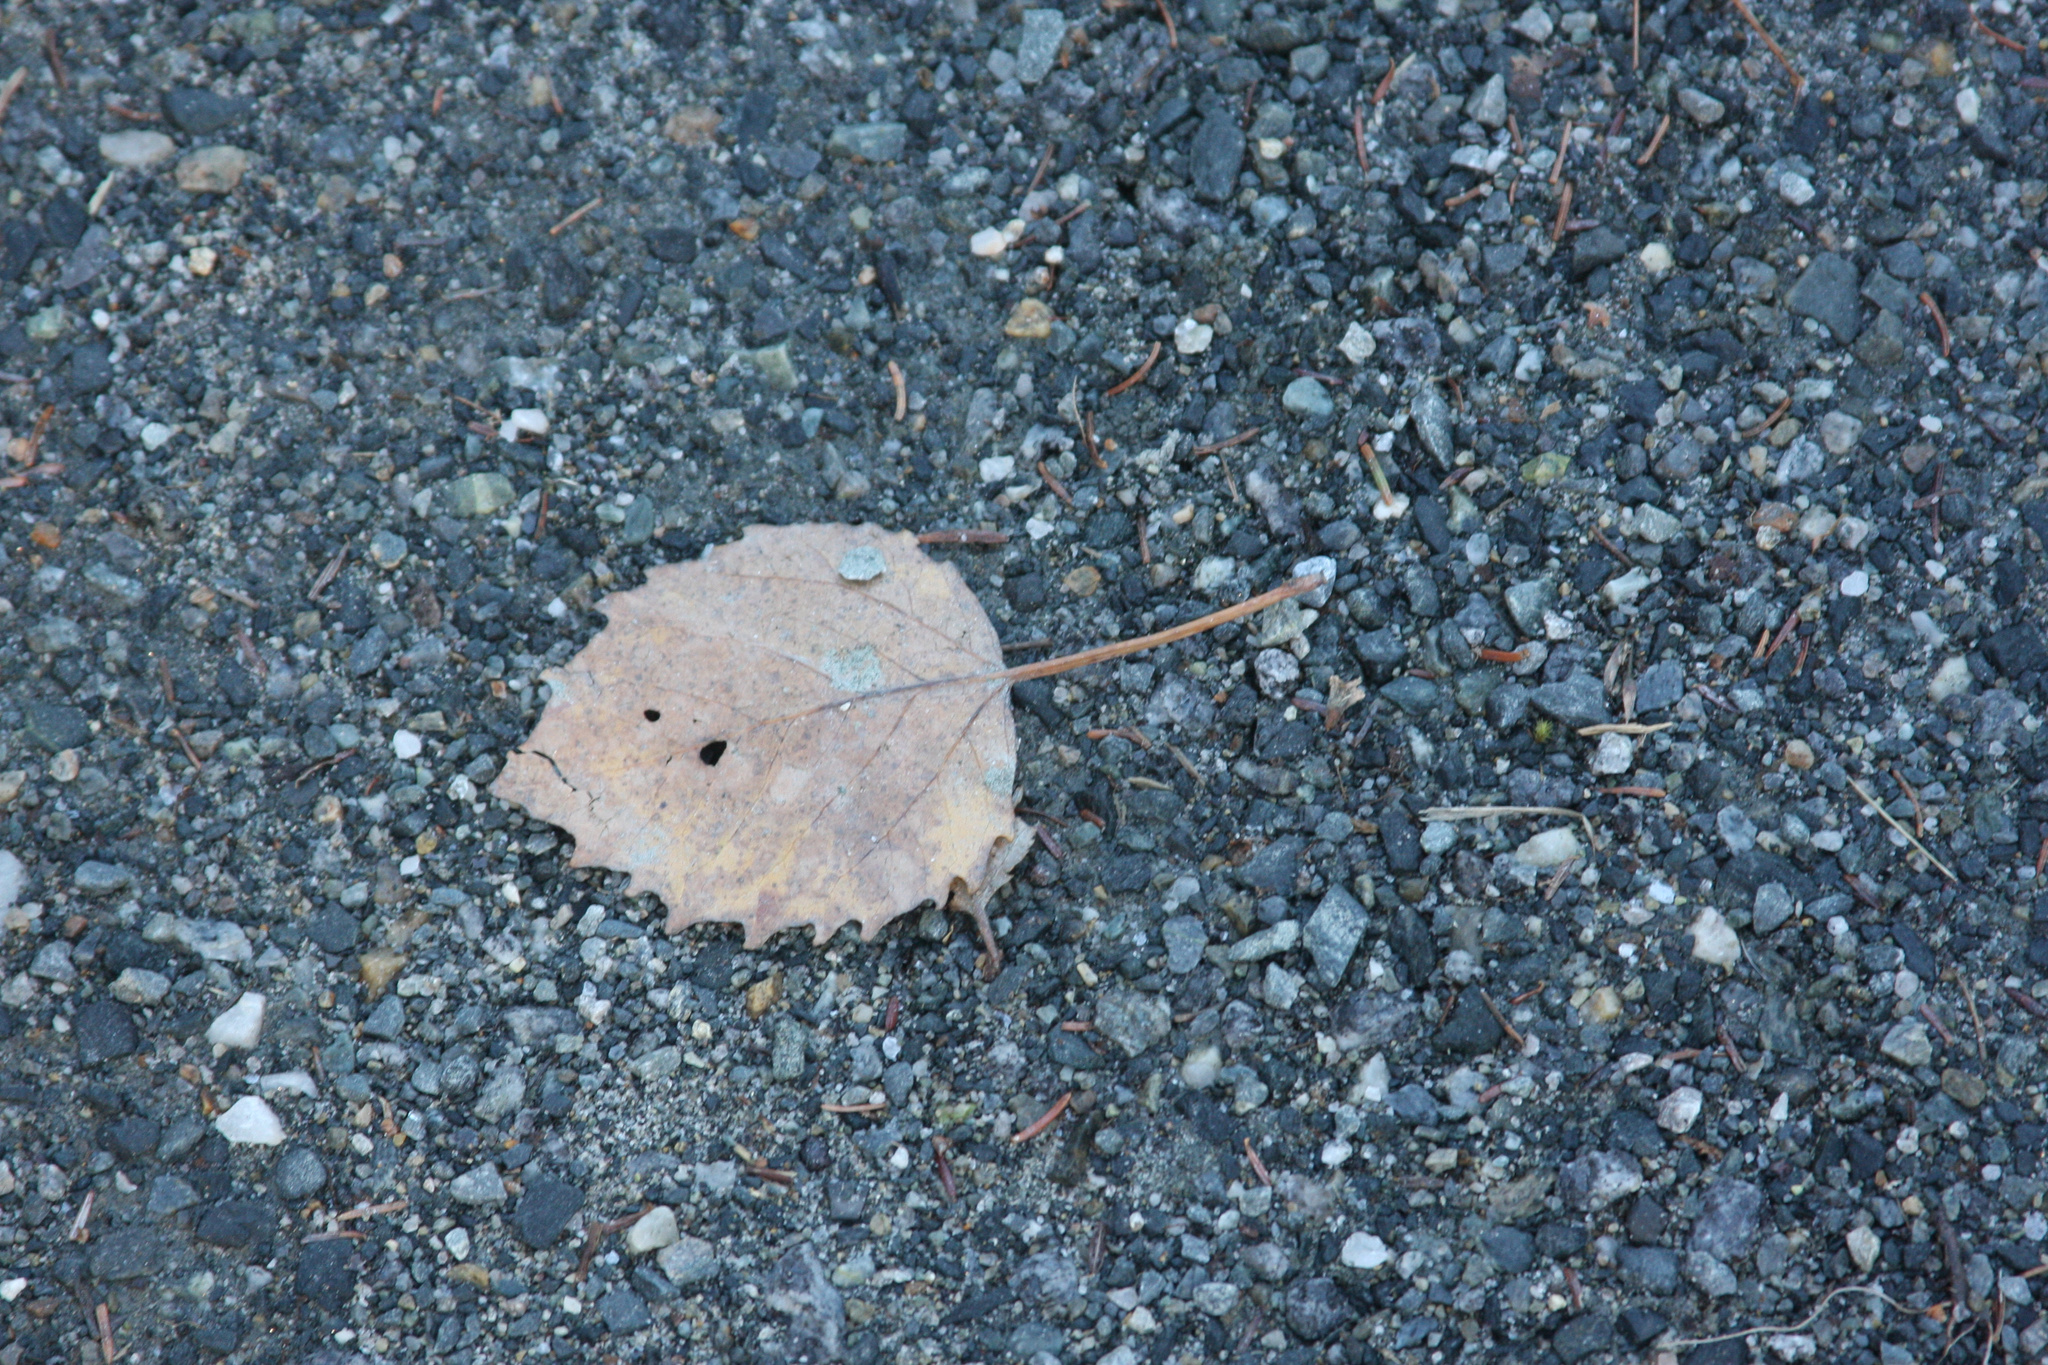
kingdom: Plantae
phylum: Tracheophyta
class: Magnoliopsida
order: Malpighiales
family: Salicaceae
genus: Populus
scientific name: Populus grandidentata
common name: Bigtooth aspen
